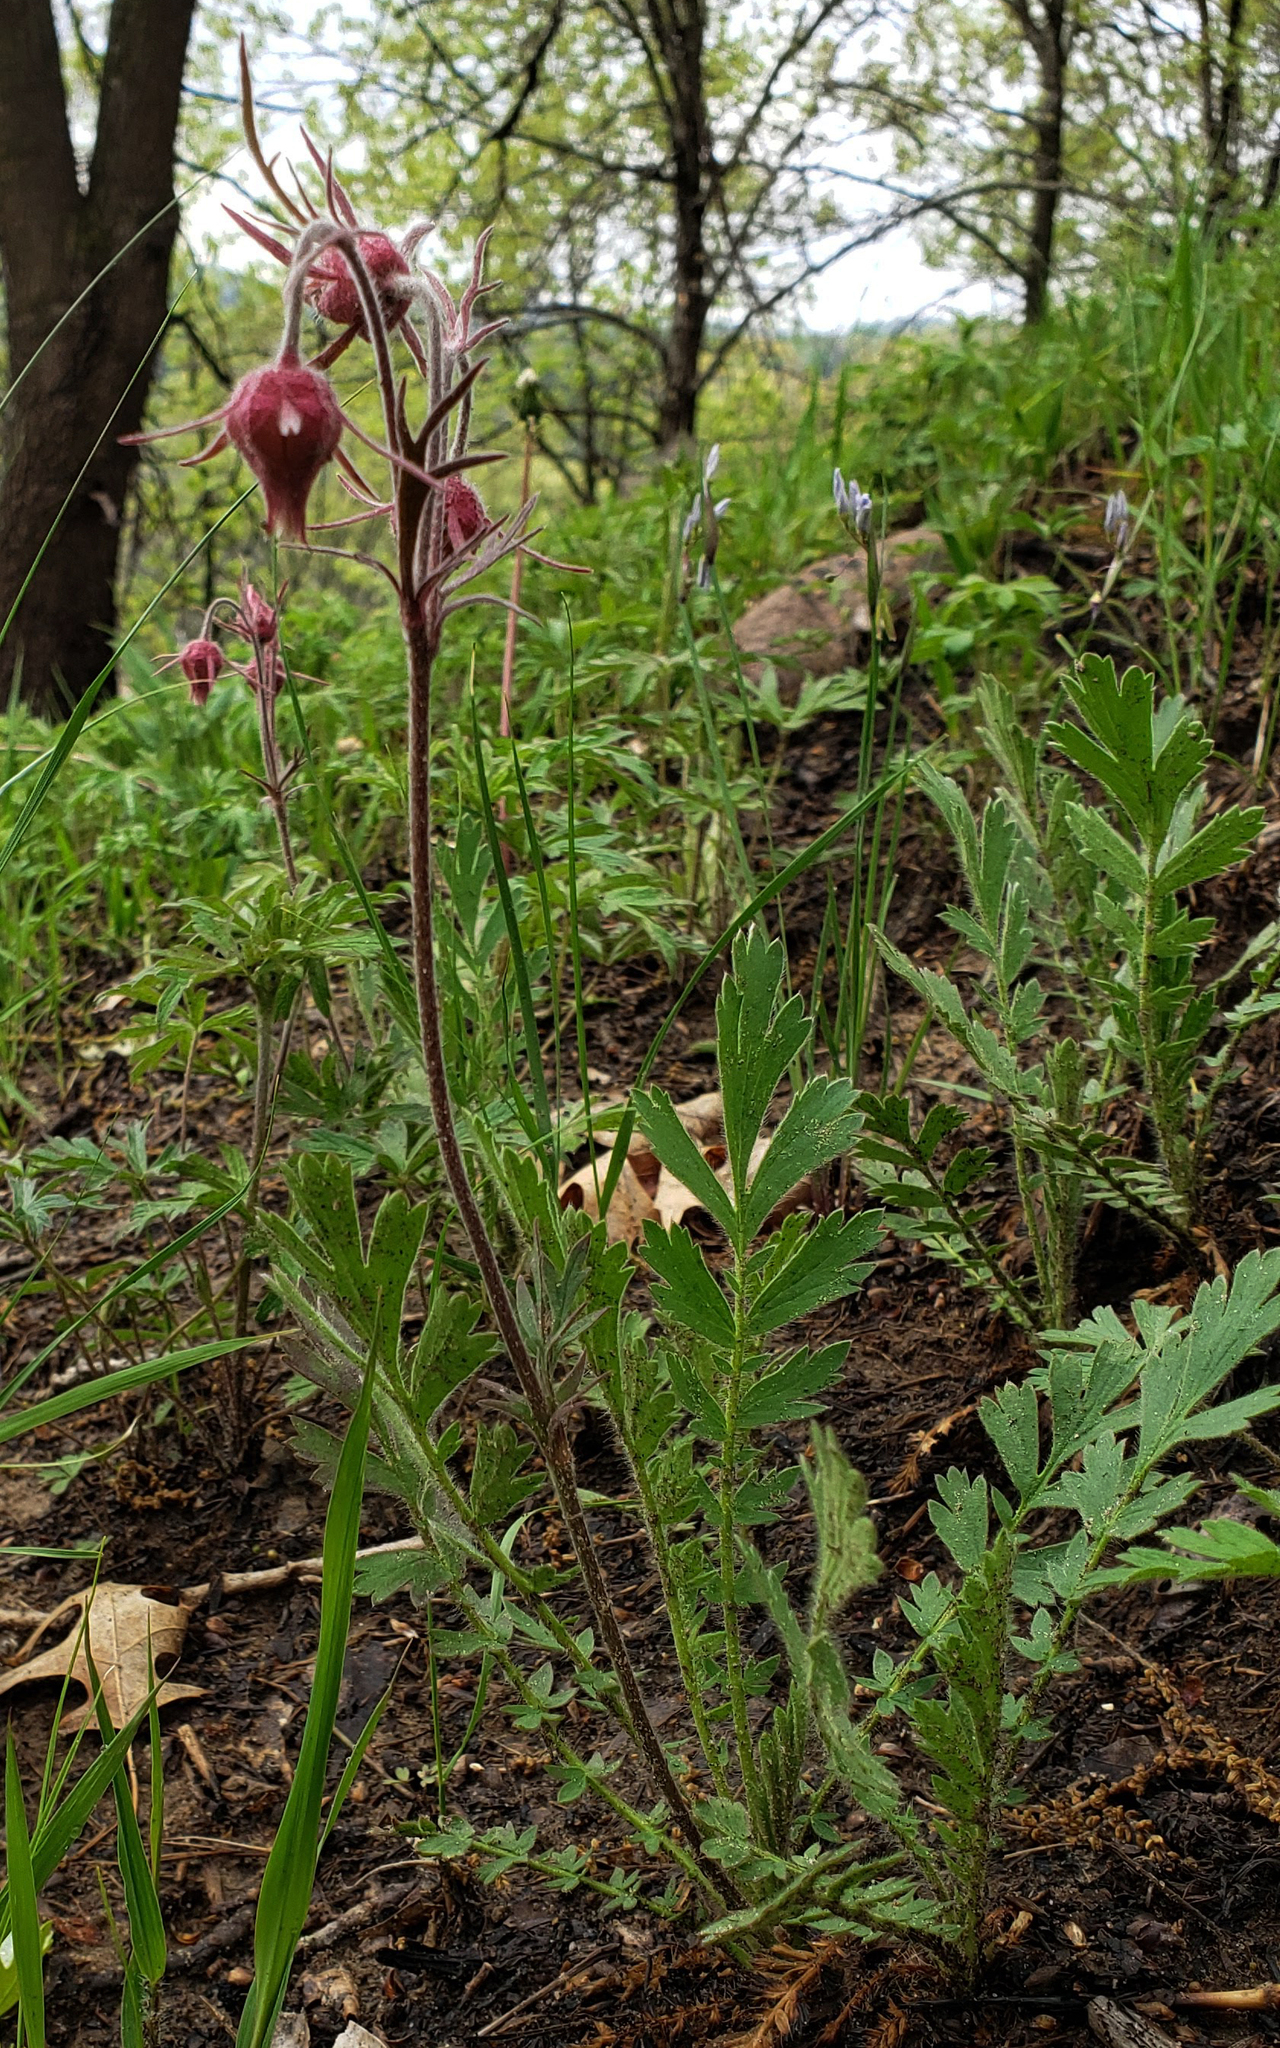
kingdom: Plantae
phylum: Tracheophyta
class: Magnoliopsida
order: Rosales
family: Rosaceae
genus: Geum
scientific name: Geum triflorum
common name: Old man's whiskers
